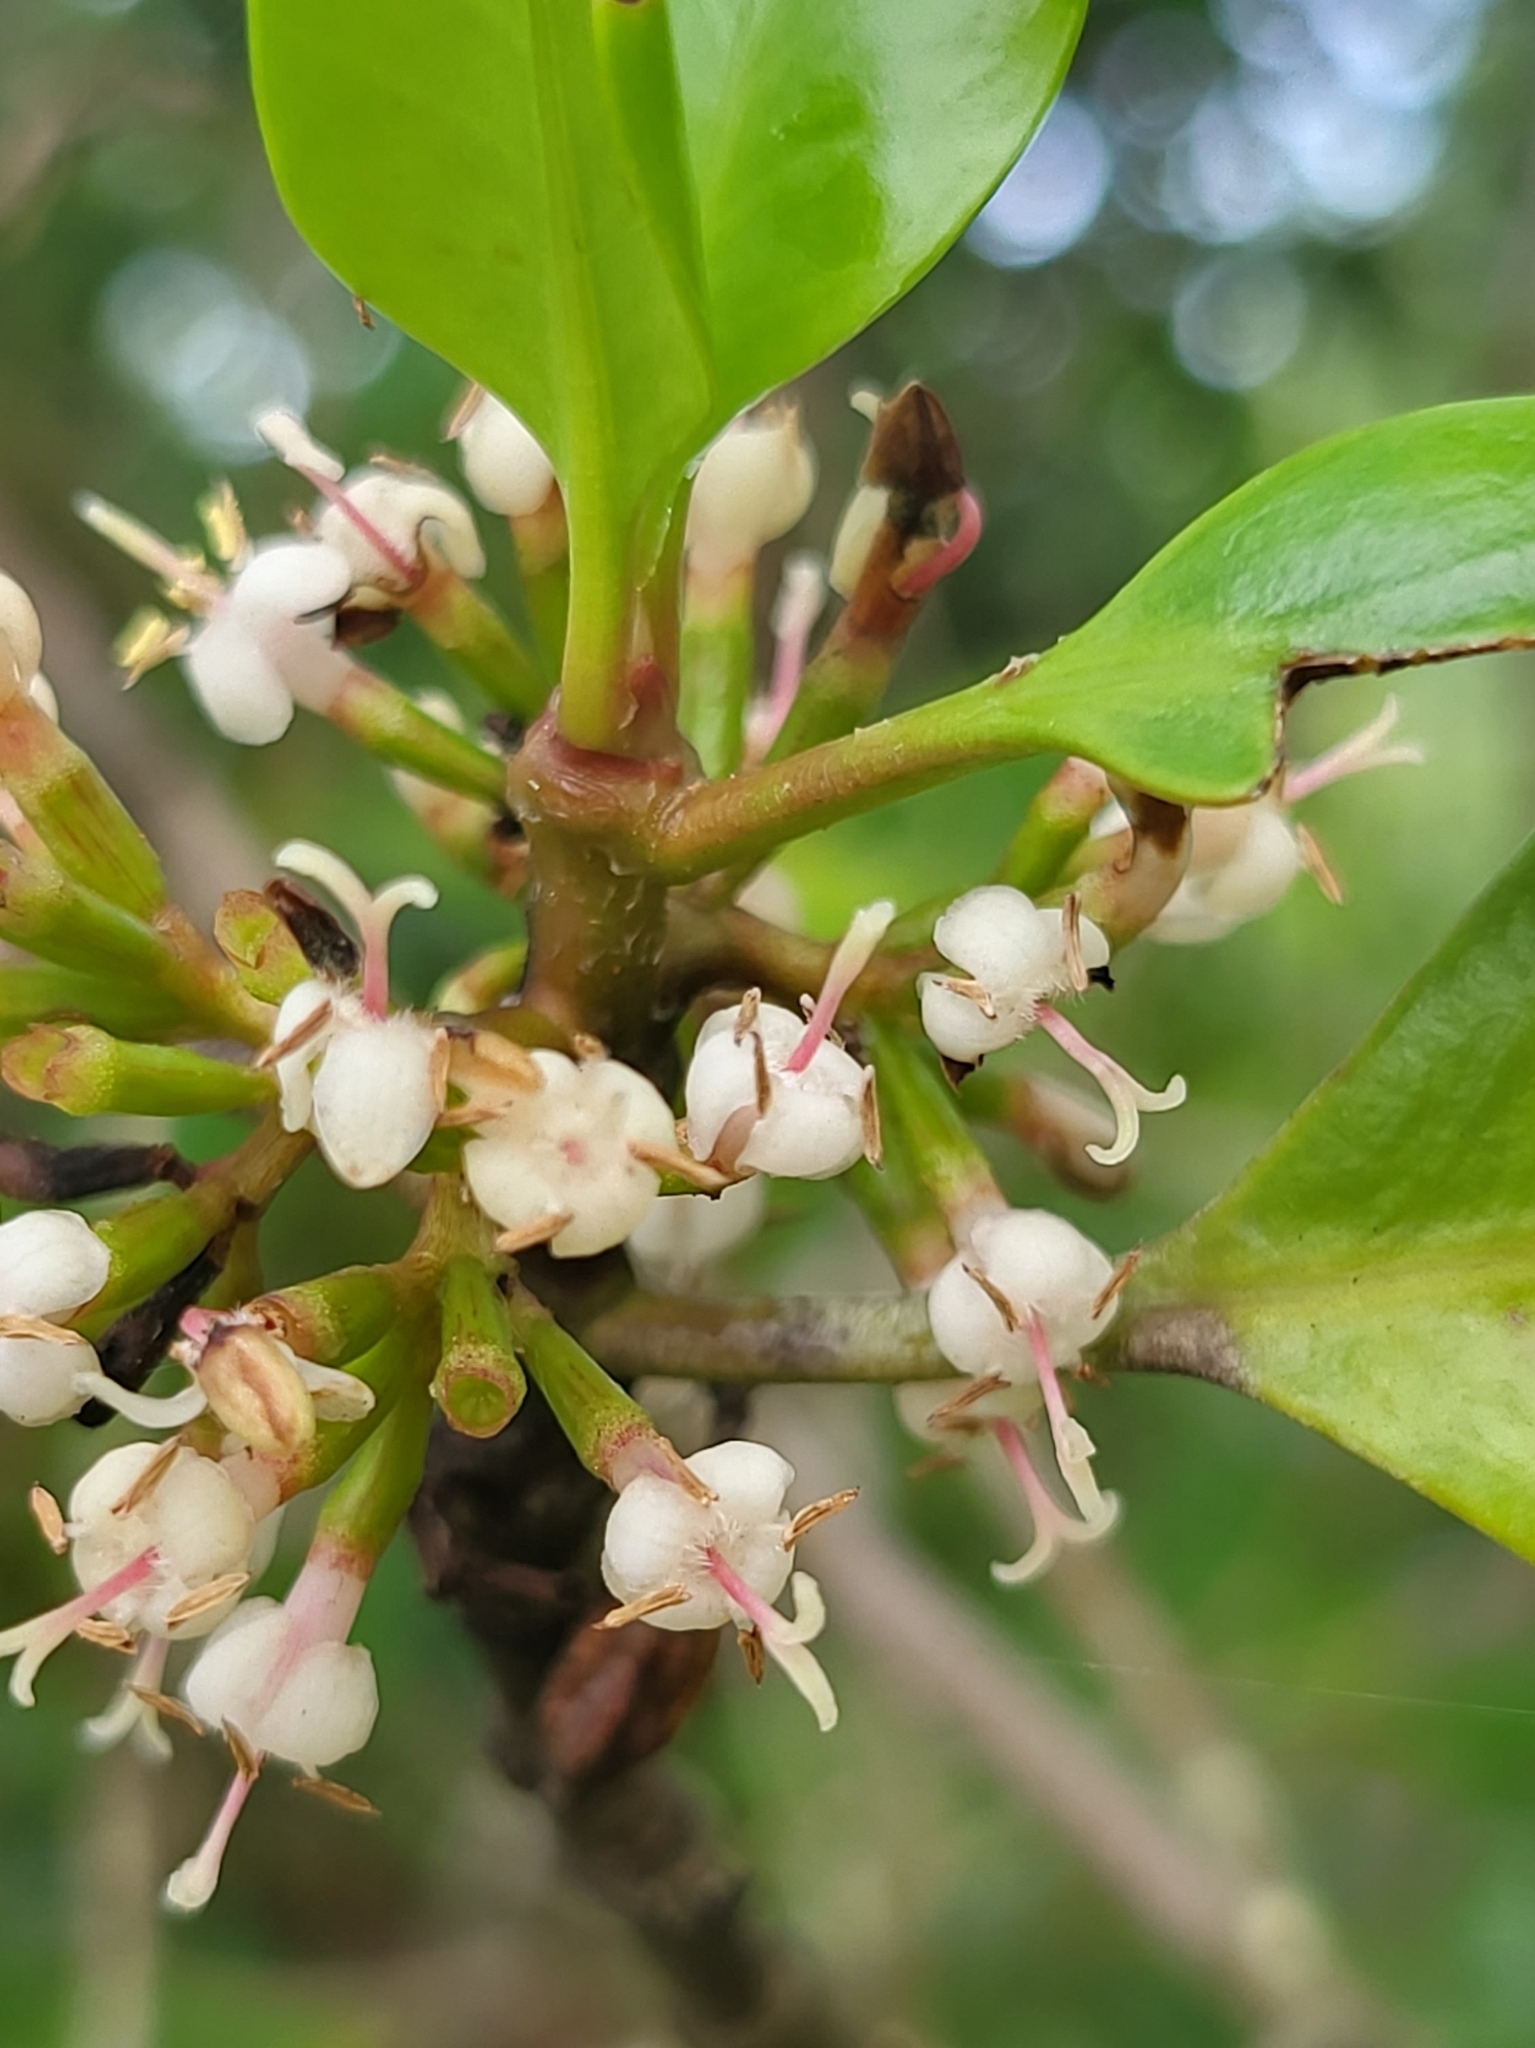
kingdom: Plantae
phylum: Tracheophyta
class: Magnoliopsida
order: Gentianales
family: Rubiaceae
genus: Scyphiphora
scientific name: Scyphiphora hydrophylacea
